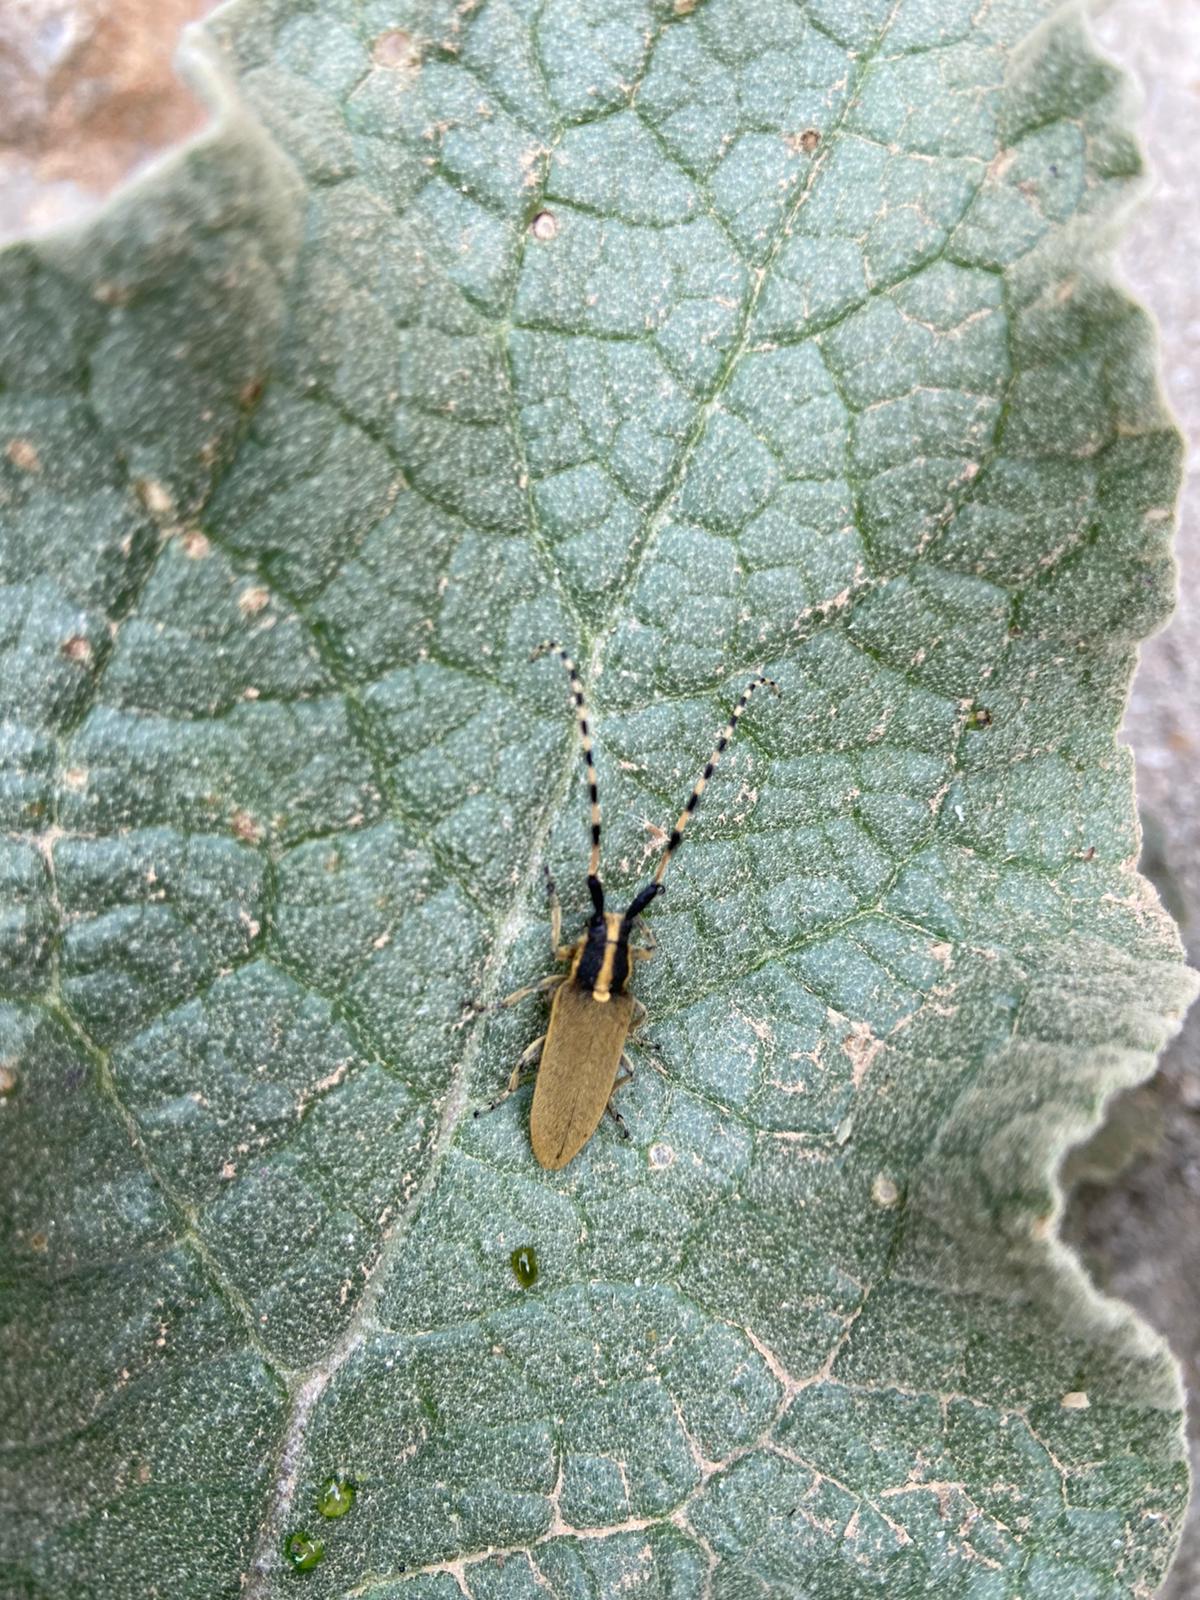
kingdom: Animalia
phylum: Arthropoda
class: Insecta
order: Coleoptera
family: Cerambycidae
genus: Agapanthia
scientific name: Agapanthia kirbyi
